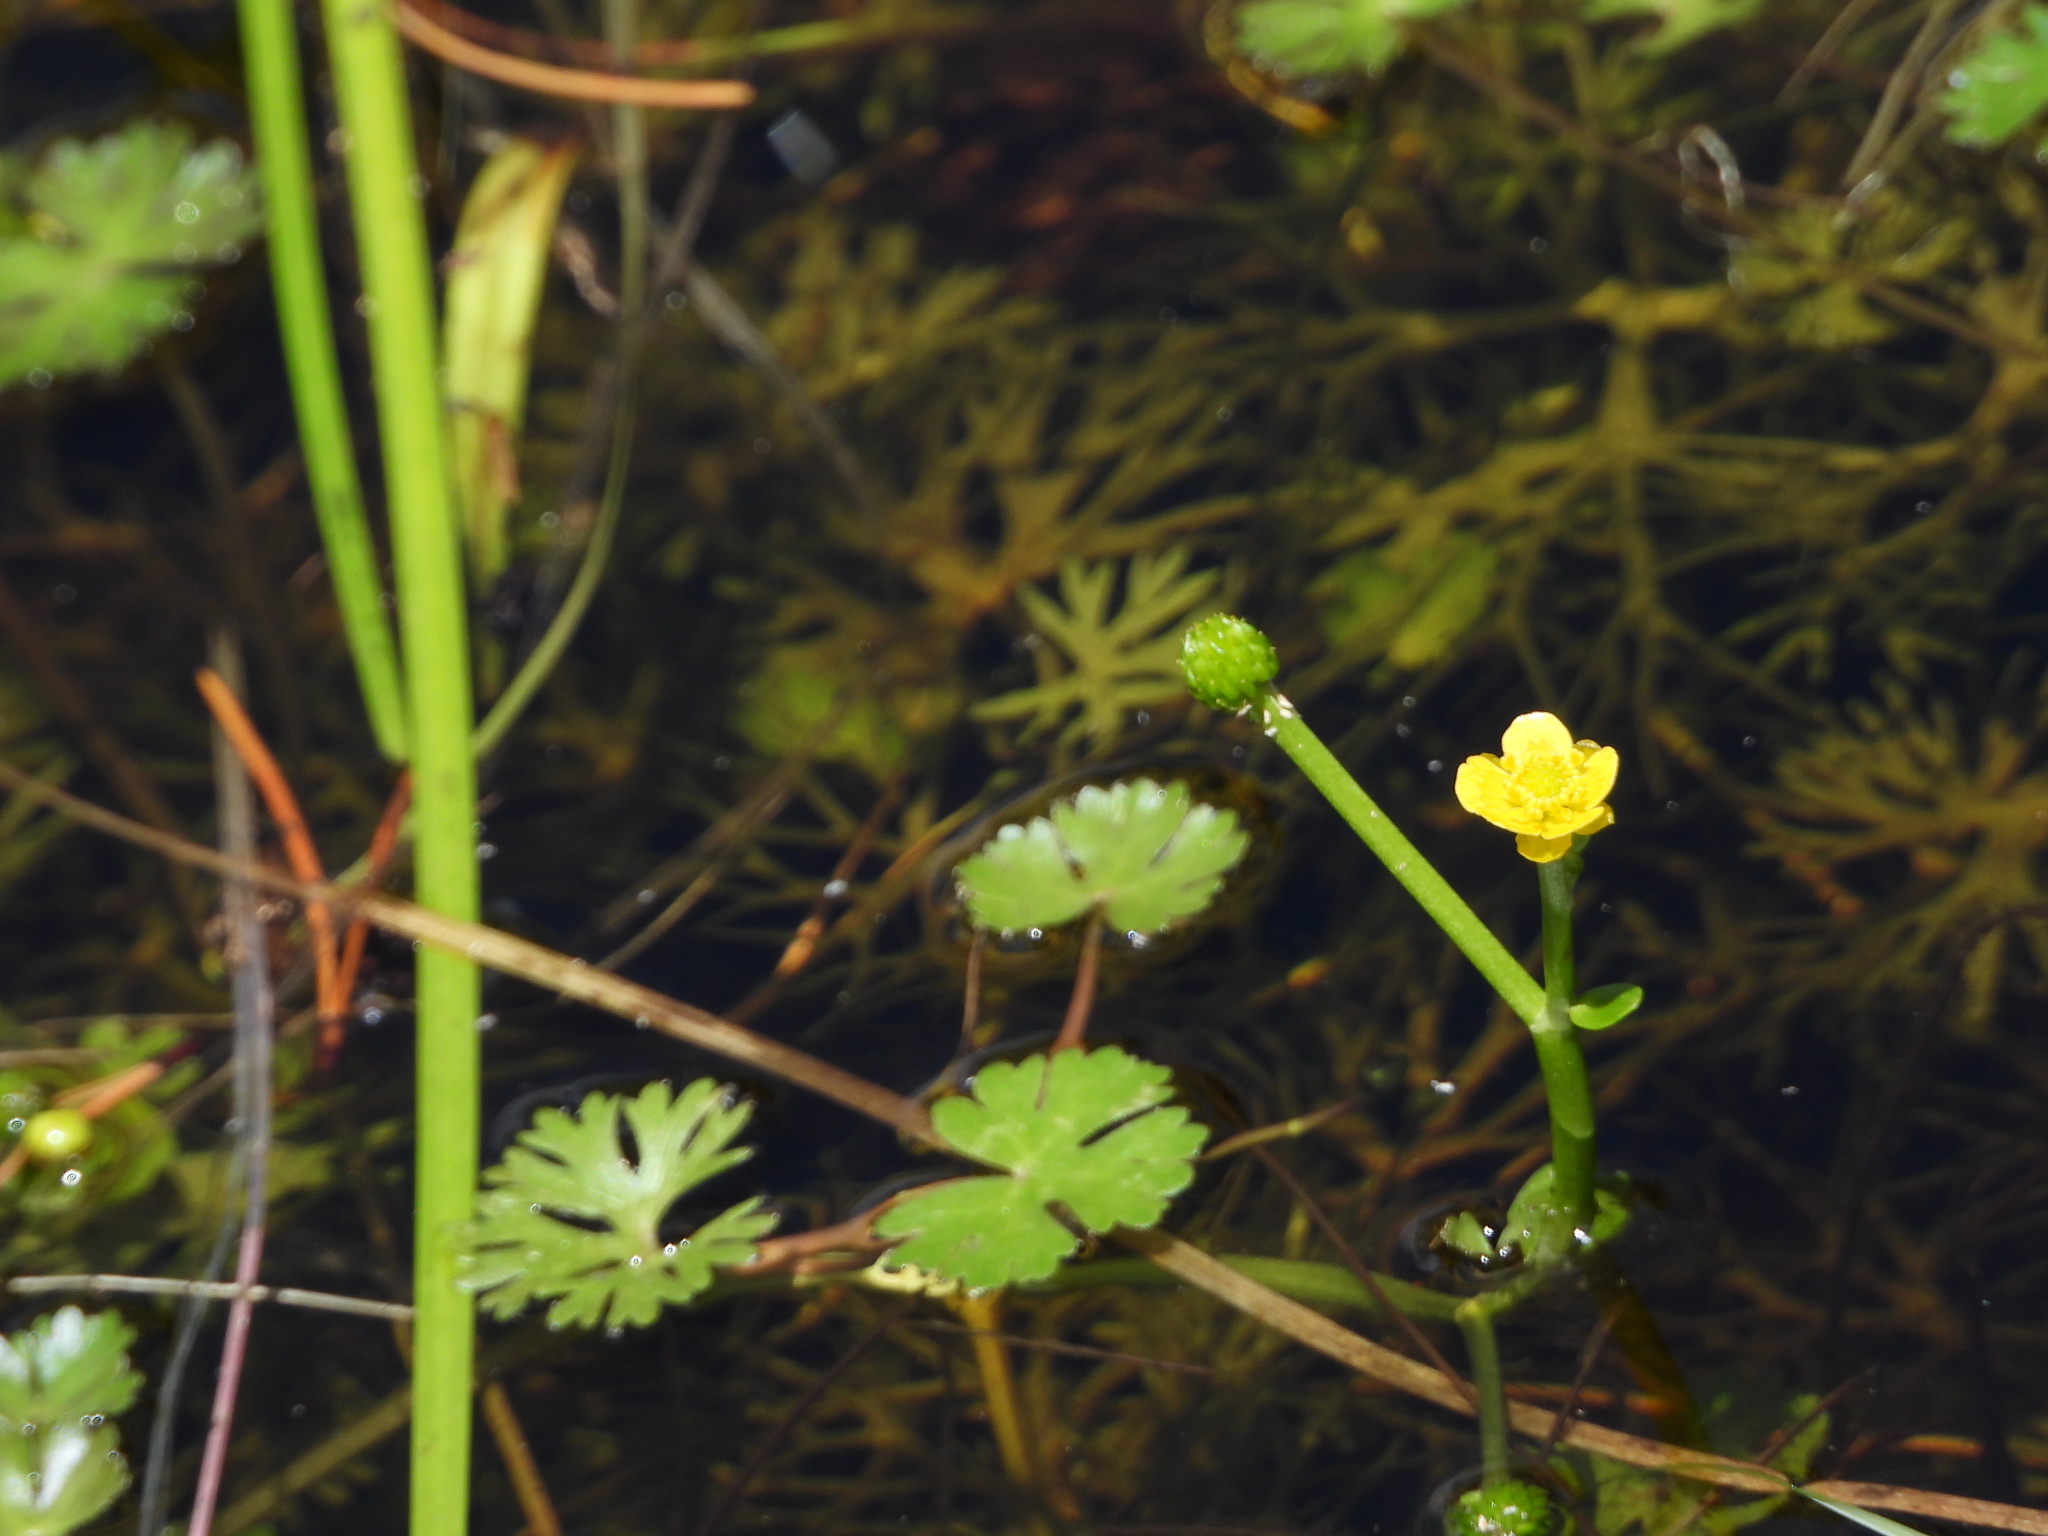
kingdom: Plantae
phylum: Tracheophyta
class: Magnoliopsida
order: Ranunculales
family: Ranunculaceae
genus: Ranunculus
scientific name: Ranunculus gmelinii
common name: Gmelin's buttercup
